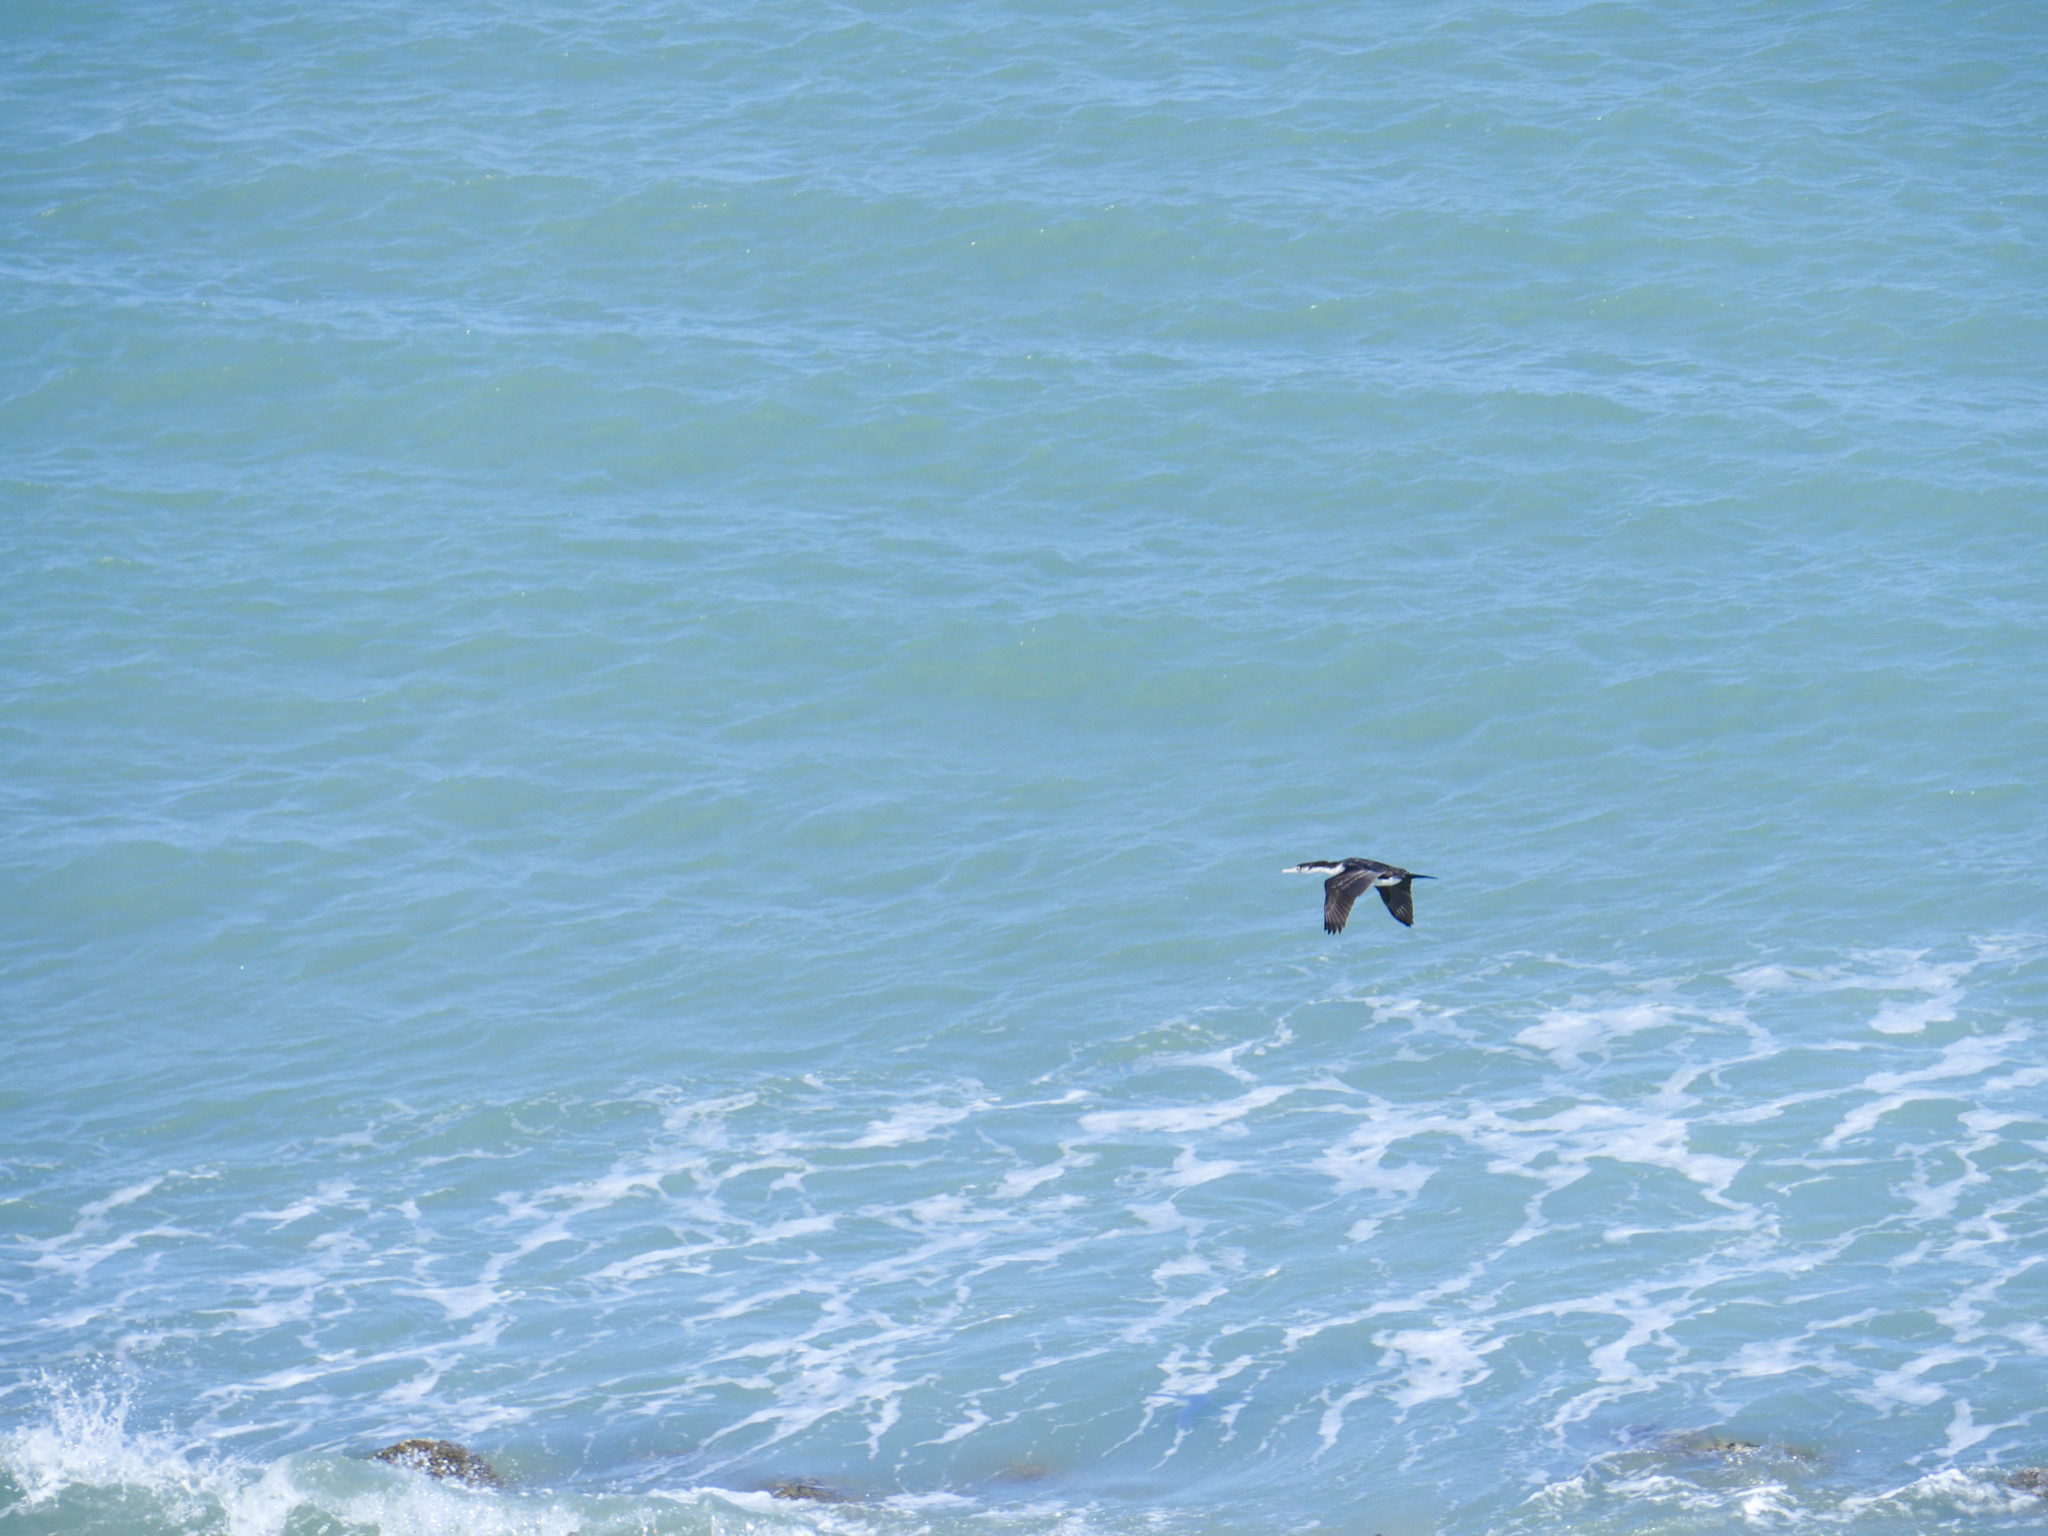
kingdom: Animalia
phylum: Chordata
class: Aves
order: Suliformes
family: Phalacrocoracidae
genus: Phalacrocorax
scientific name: Phalacrocorax varius
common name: Pied cormorant
